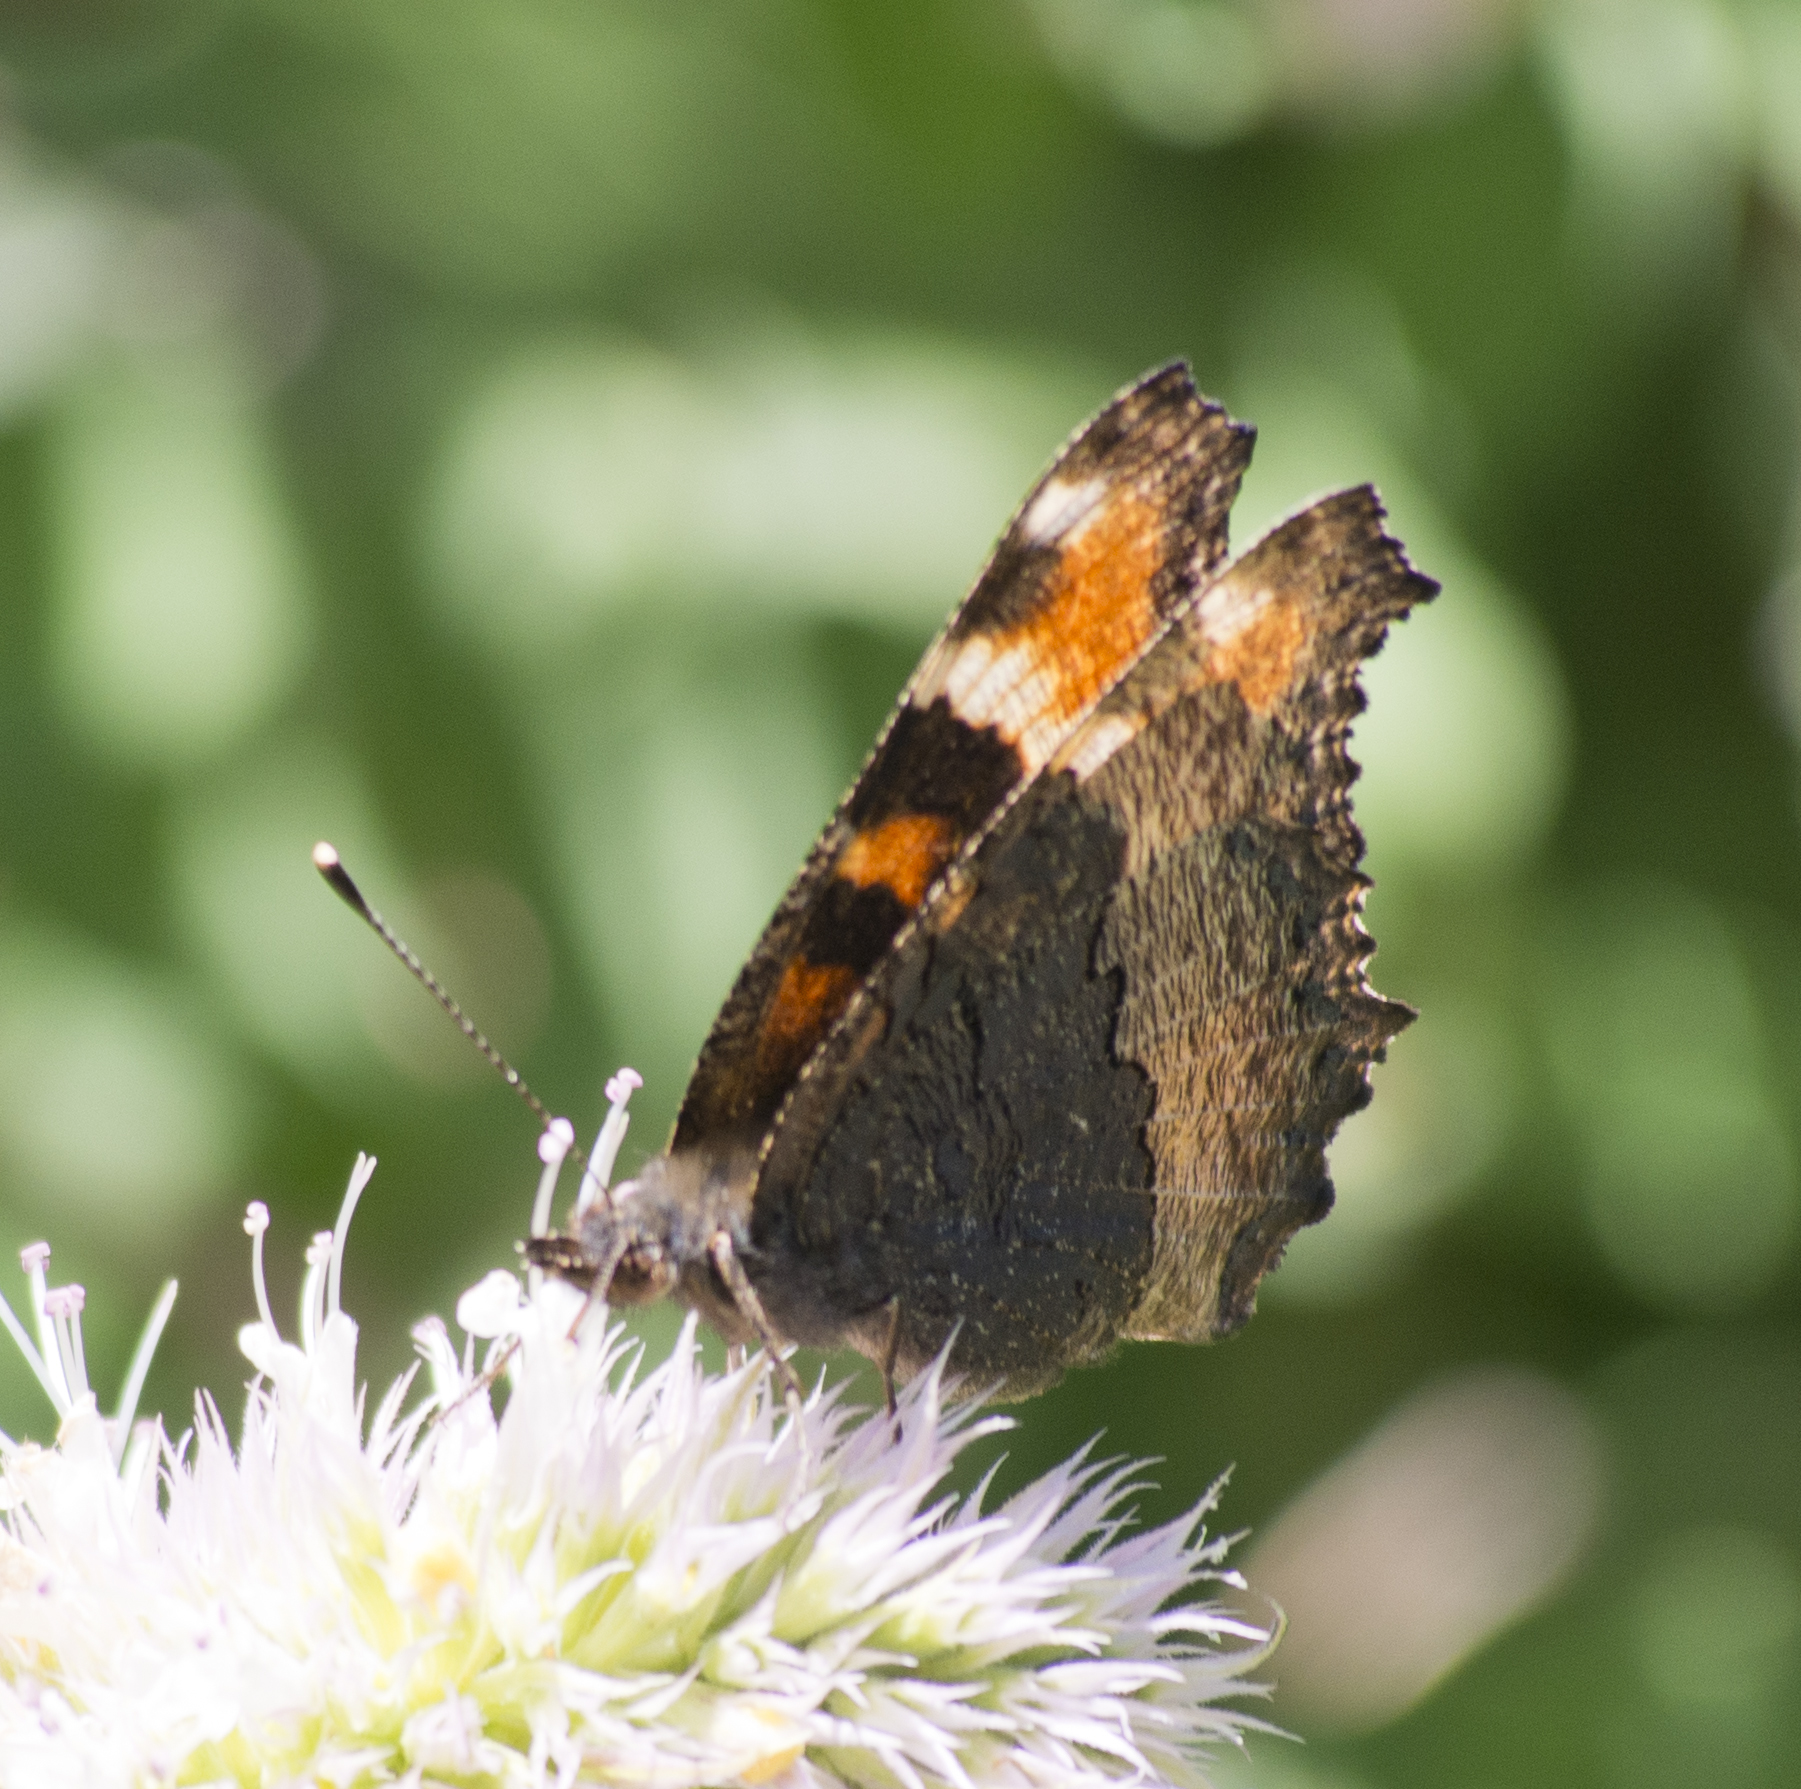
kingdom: Animalia
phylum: Arthropoda
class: Insecta
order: Lepidoptera
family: Nymphalidae
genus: Aglais
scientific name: Aglais milberti
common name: Milbert's tortoiseshell
